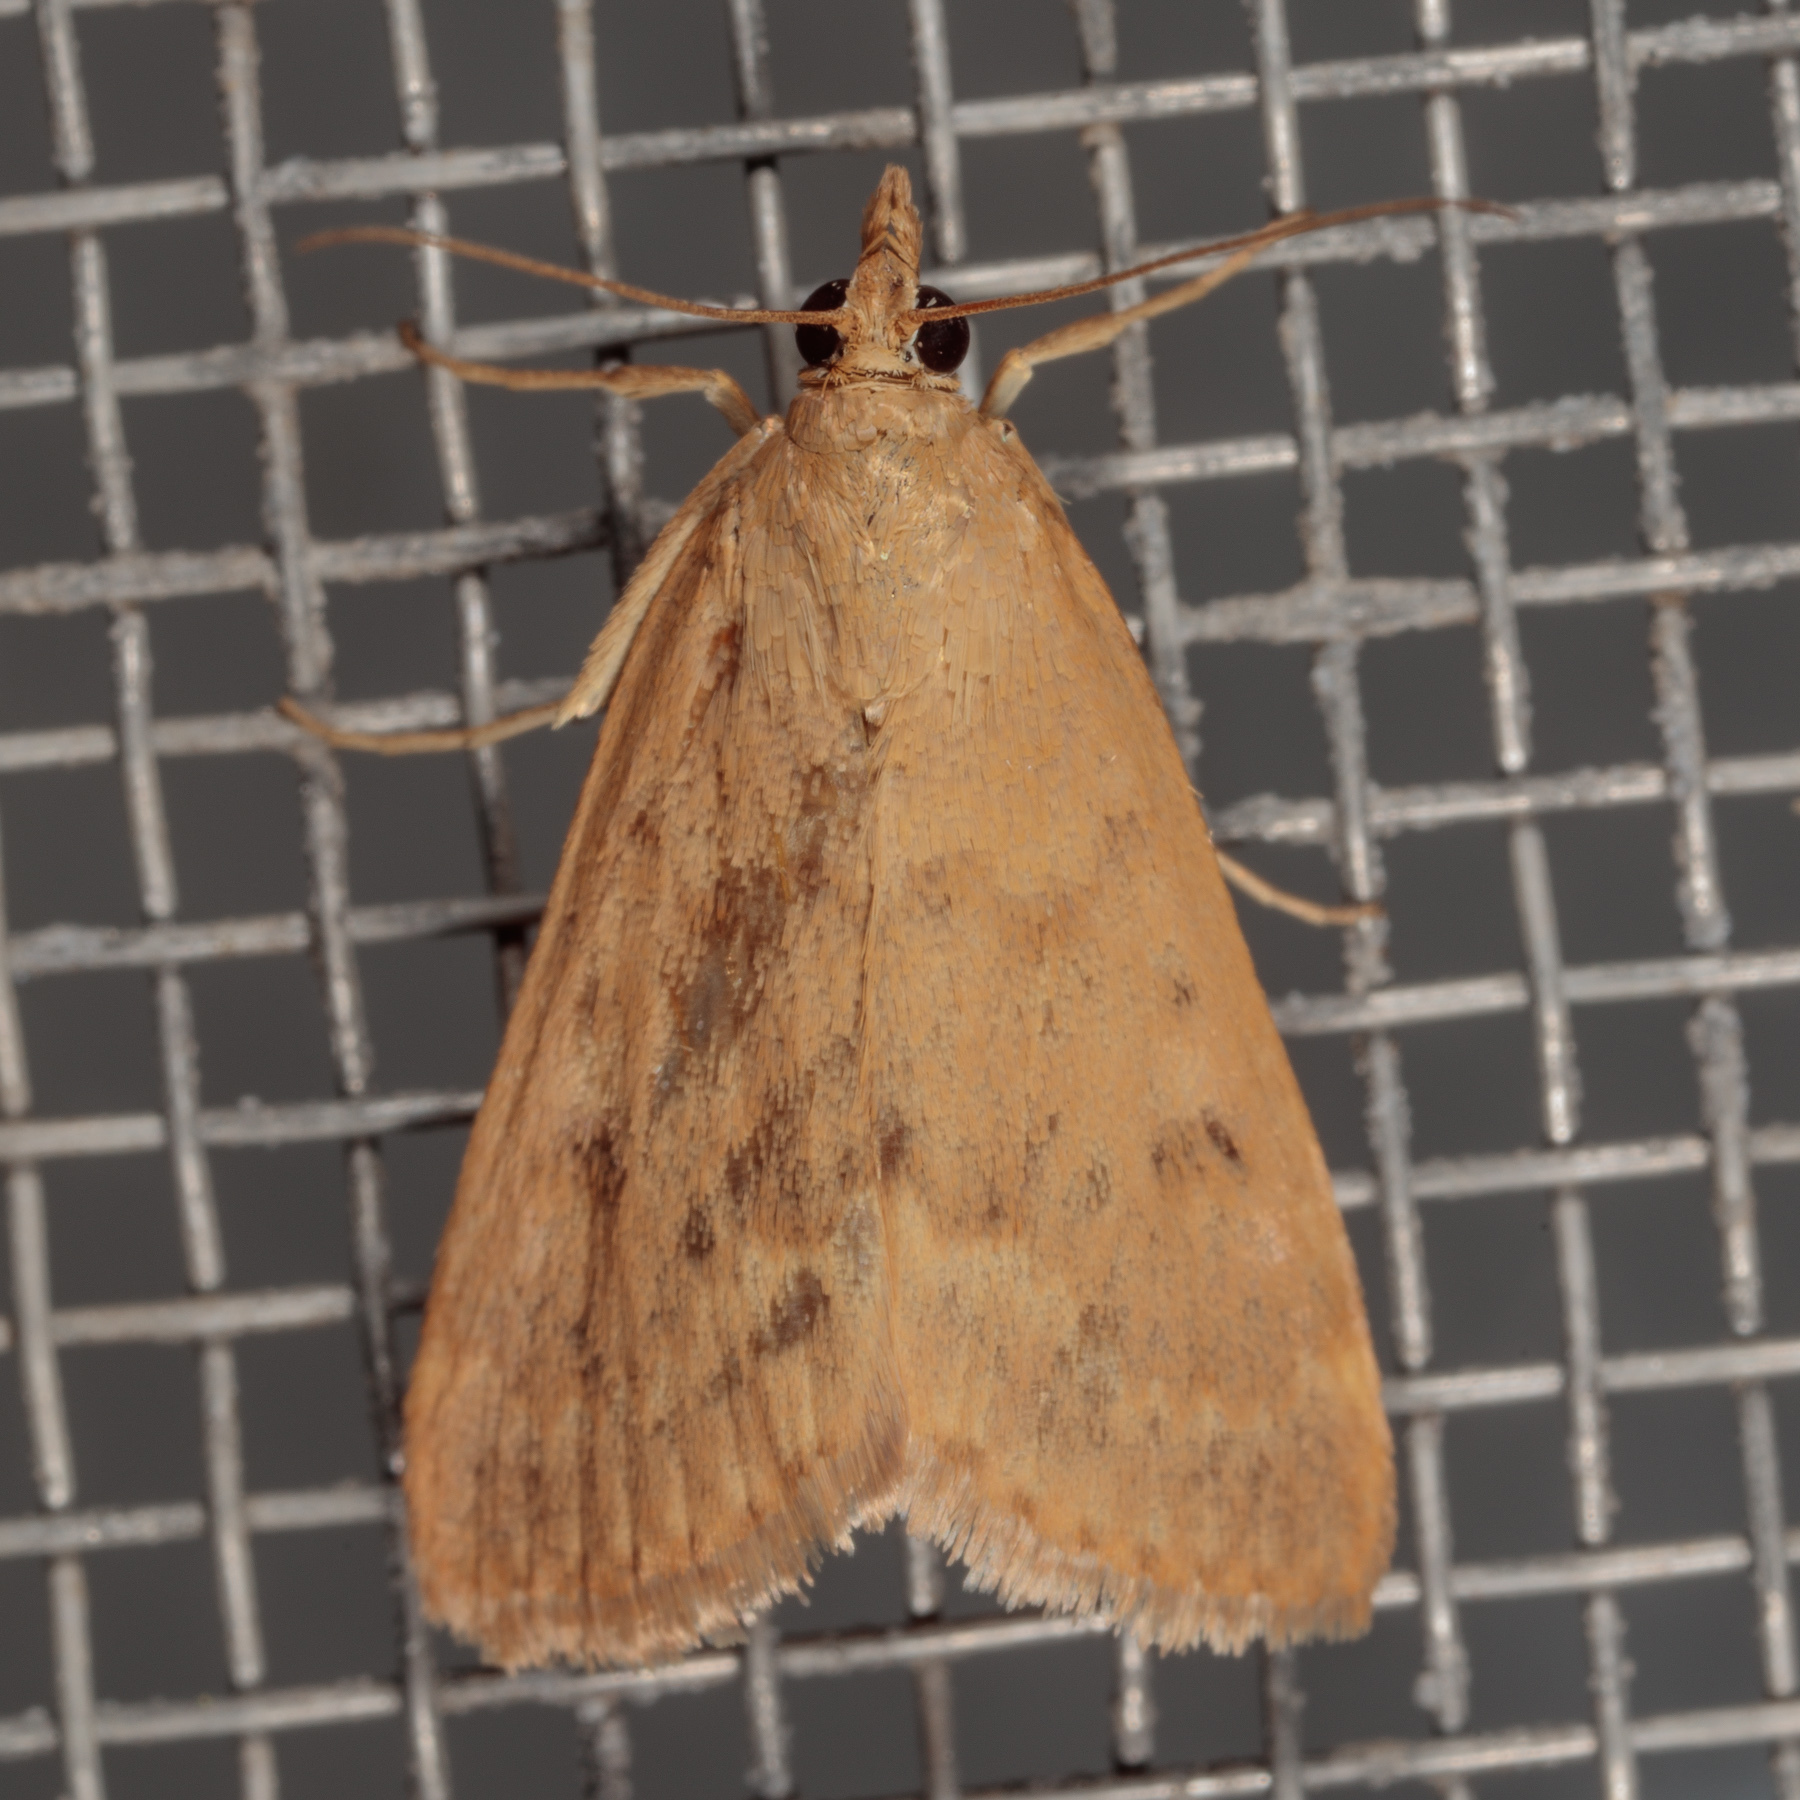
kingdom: Animalia
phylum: Arthropoda
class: Insecta
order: Lepidoptera
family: Crambidae
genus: Achyra
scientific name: Achyra rantalis
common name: Garden webworm
